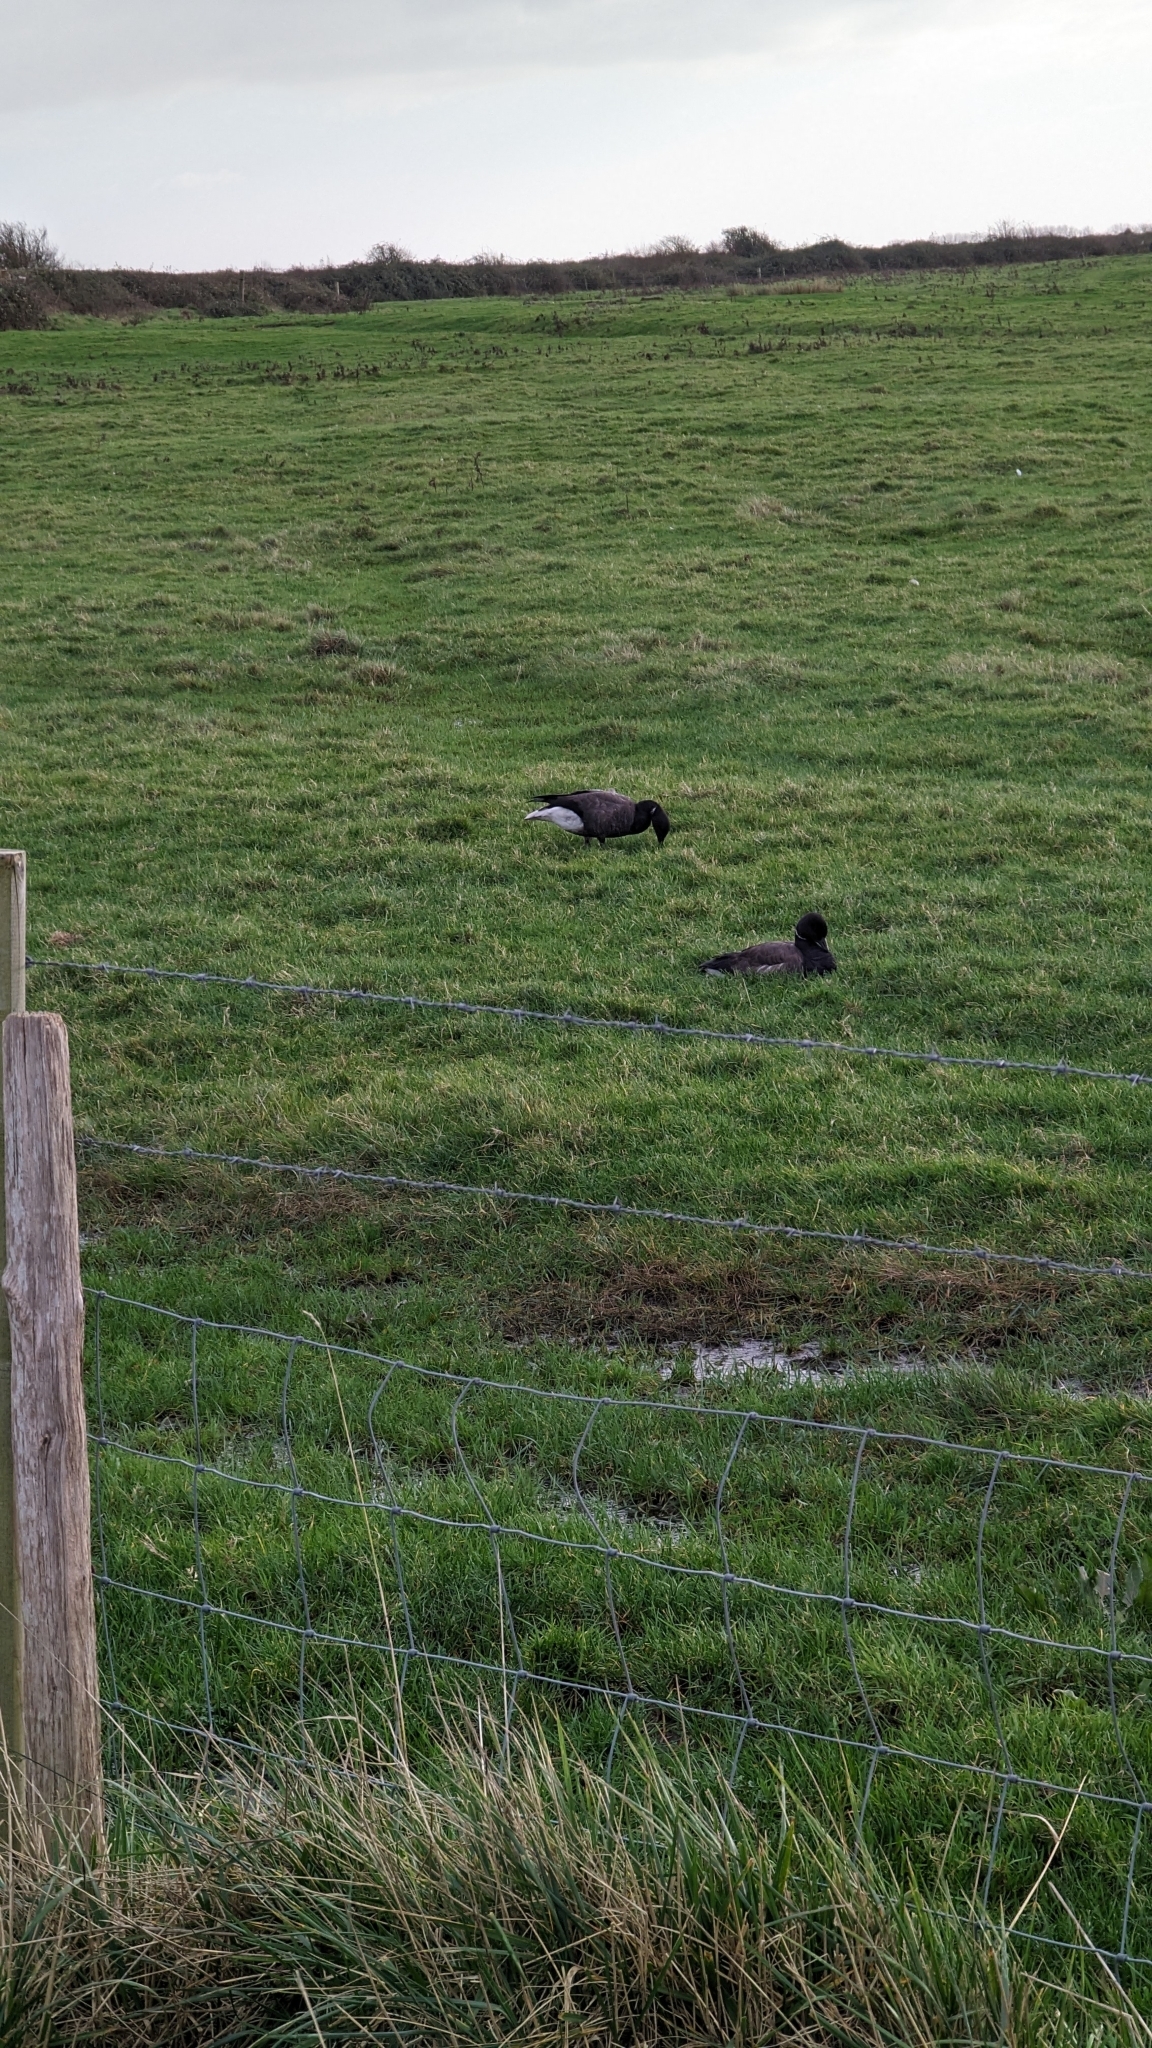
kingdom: Animalia
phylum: Chordata
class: Aves
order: Anseriformes
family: Anatidae
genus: Branta
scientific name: Branta bernicla
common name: Brant goose
